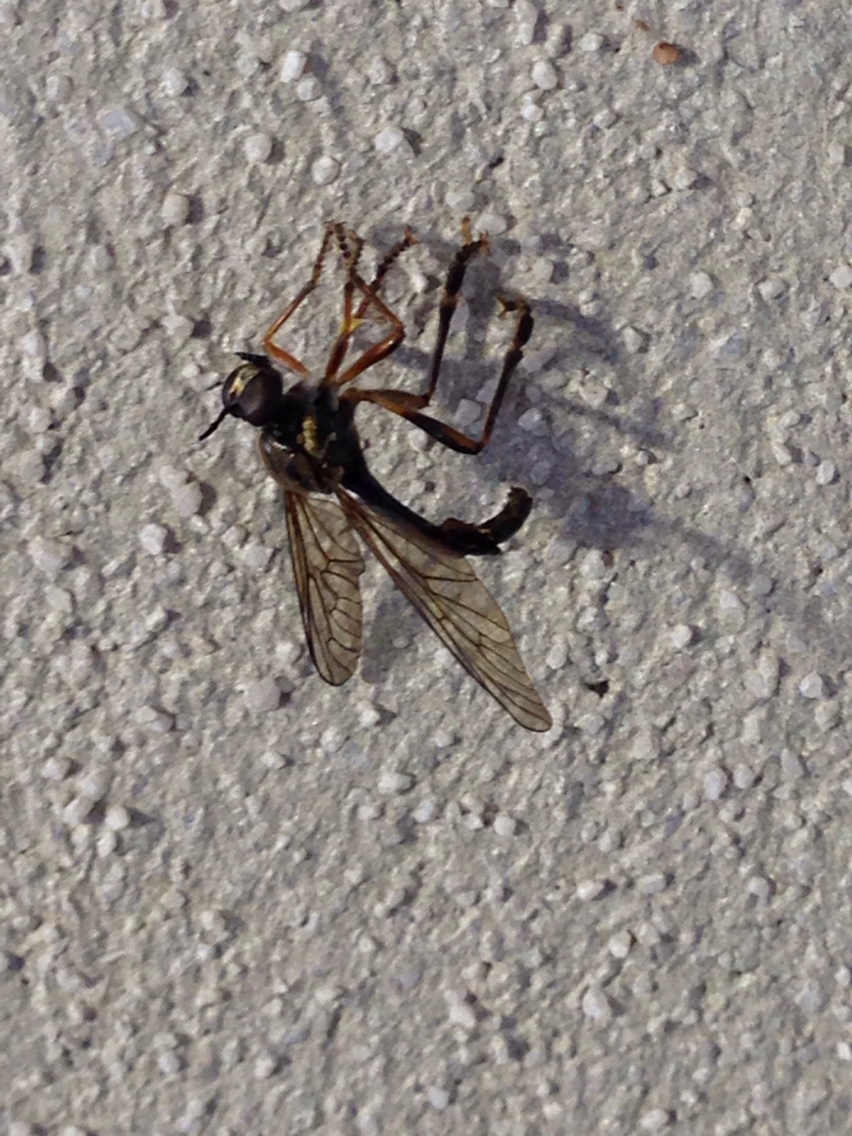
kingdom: Animalia
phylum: Arthropoda
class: Insecta
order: Diptera
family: Asilidae
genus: Dioctria
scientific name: Dioctria hyalipennis
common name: Stripe-legged robberfly
